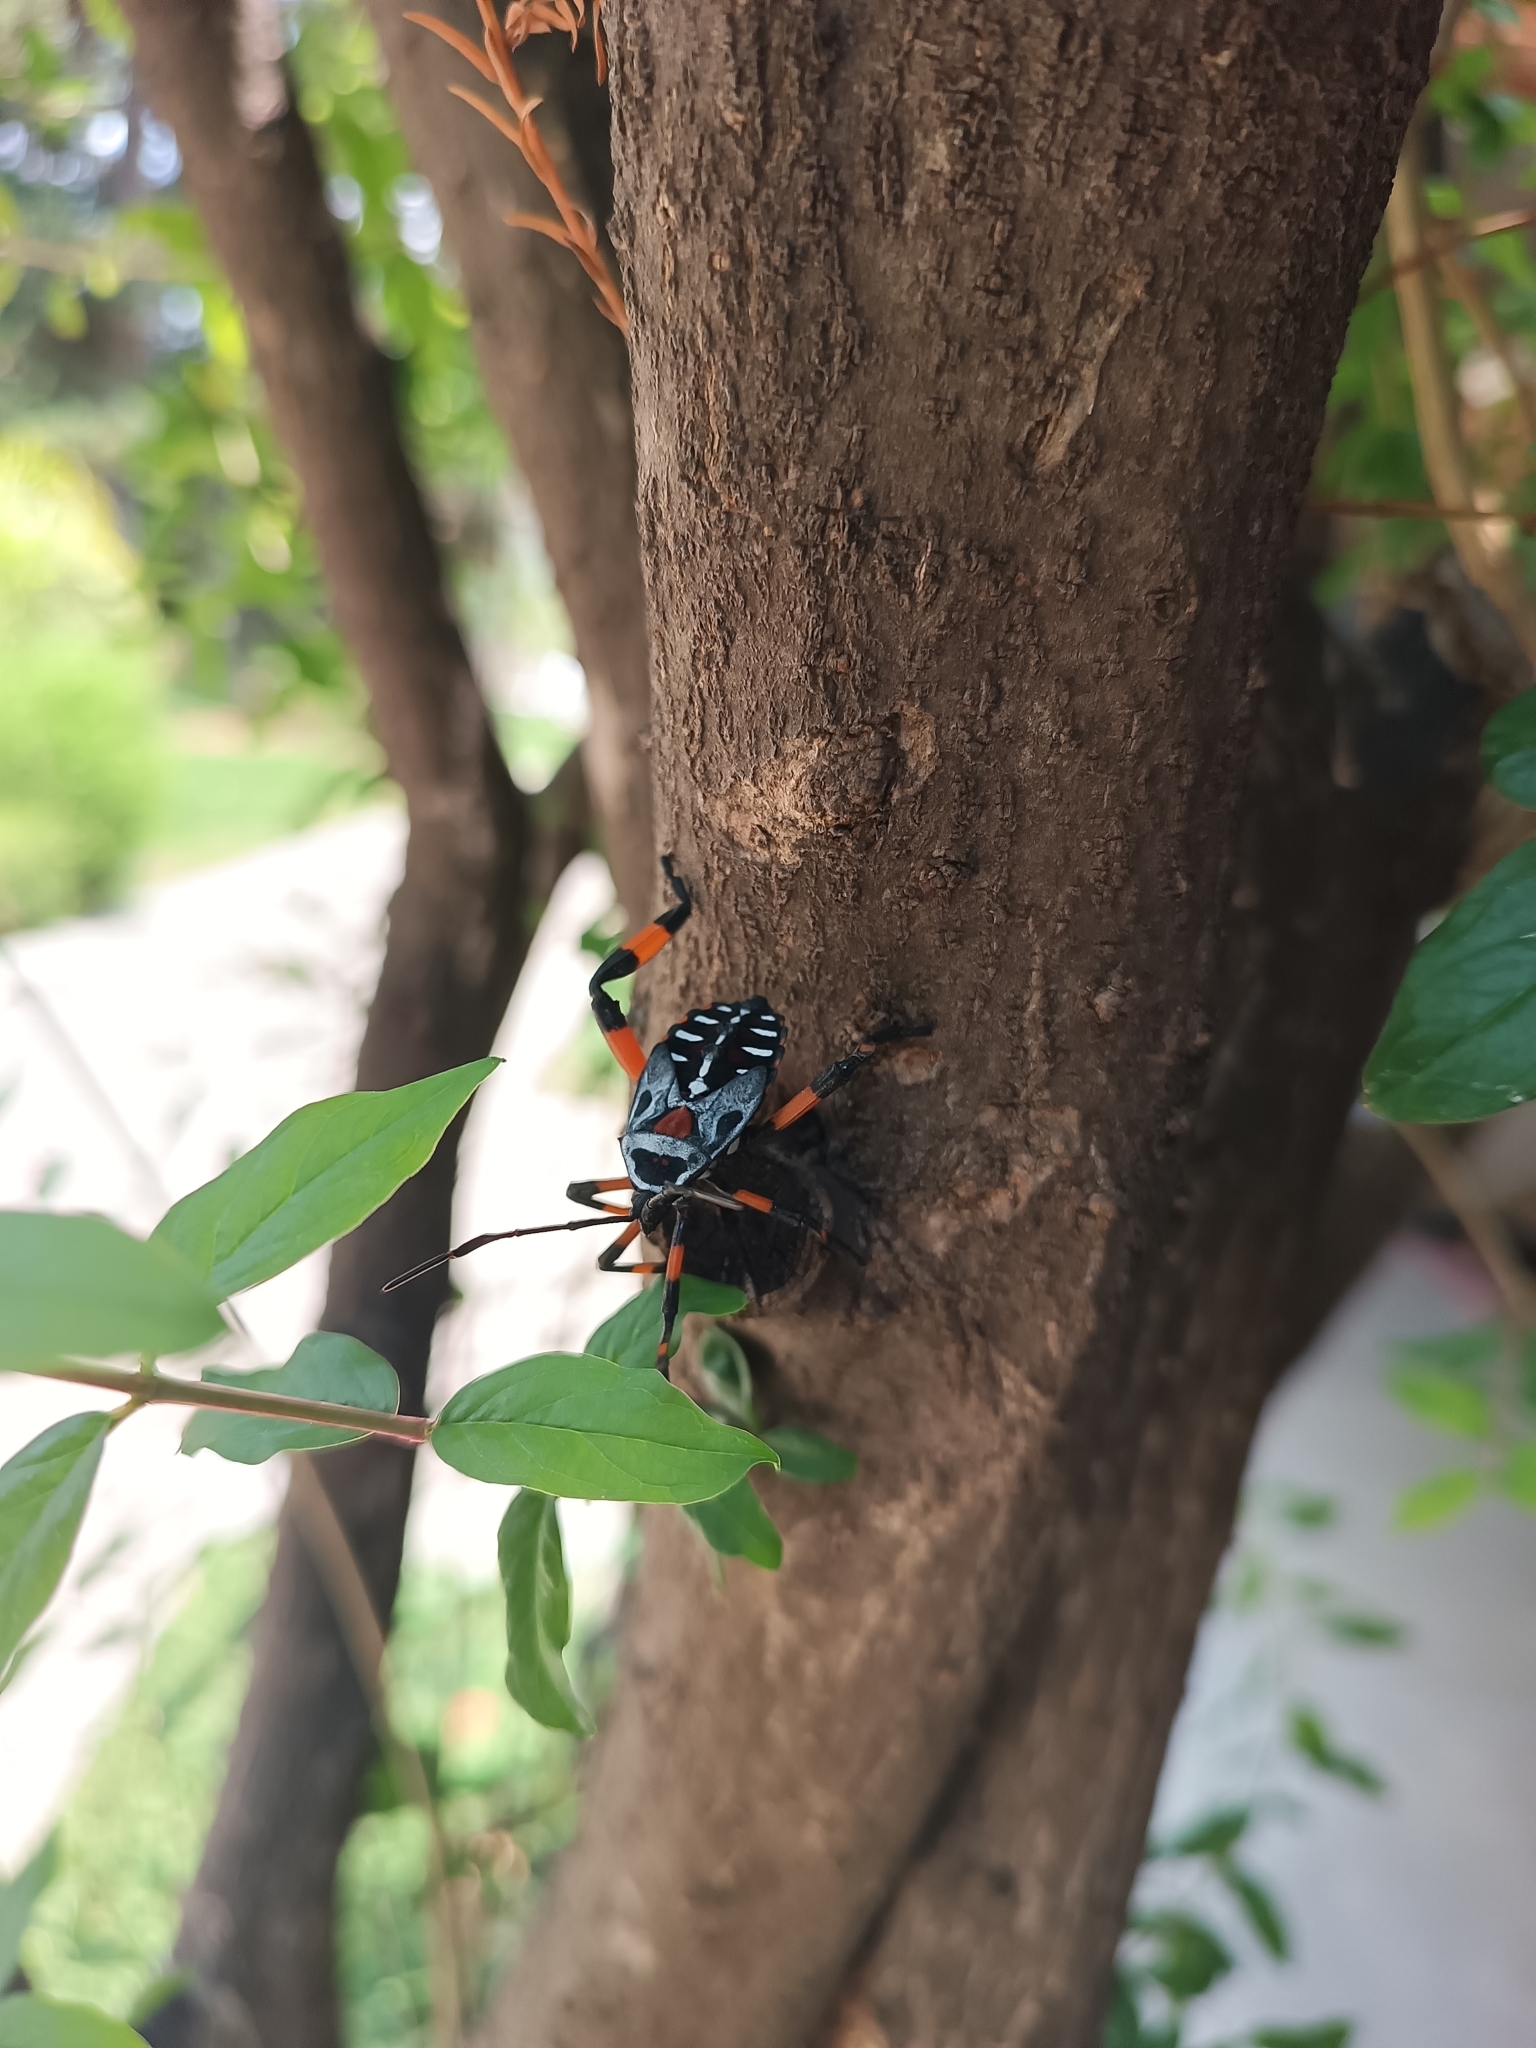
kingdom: Animalia
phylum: Arthropoda
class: Insecta
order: Hemiptera
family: Coreidae
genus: Thasus
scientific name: Thasus
